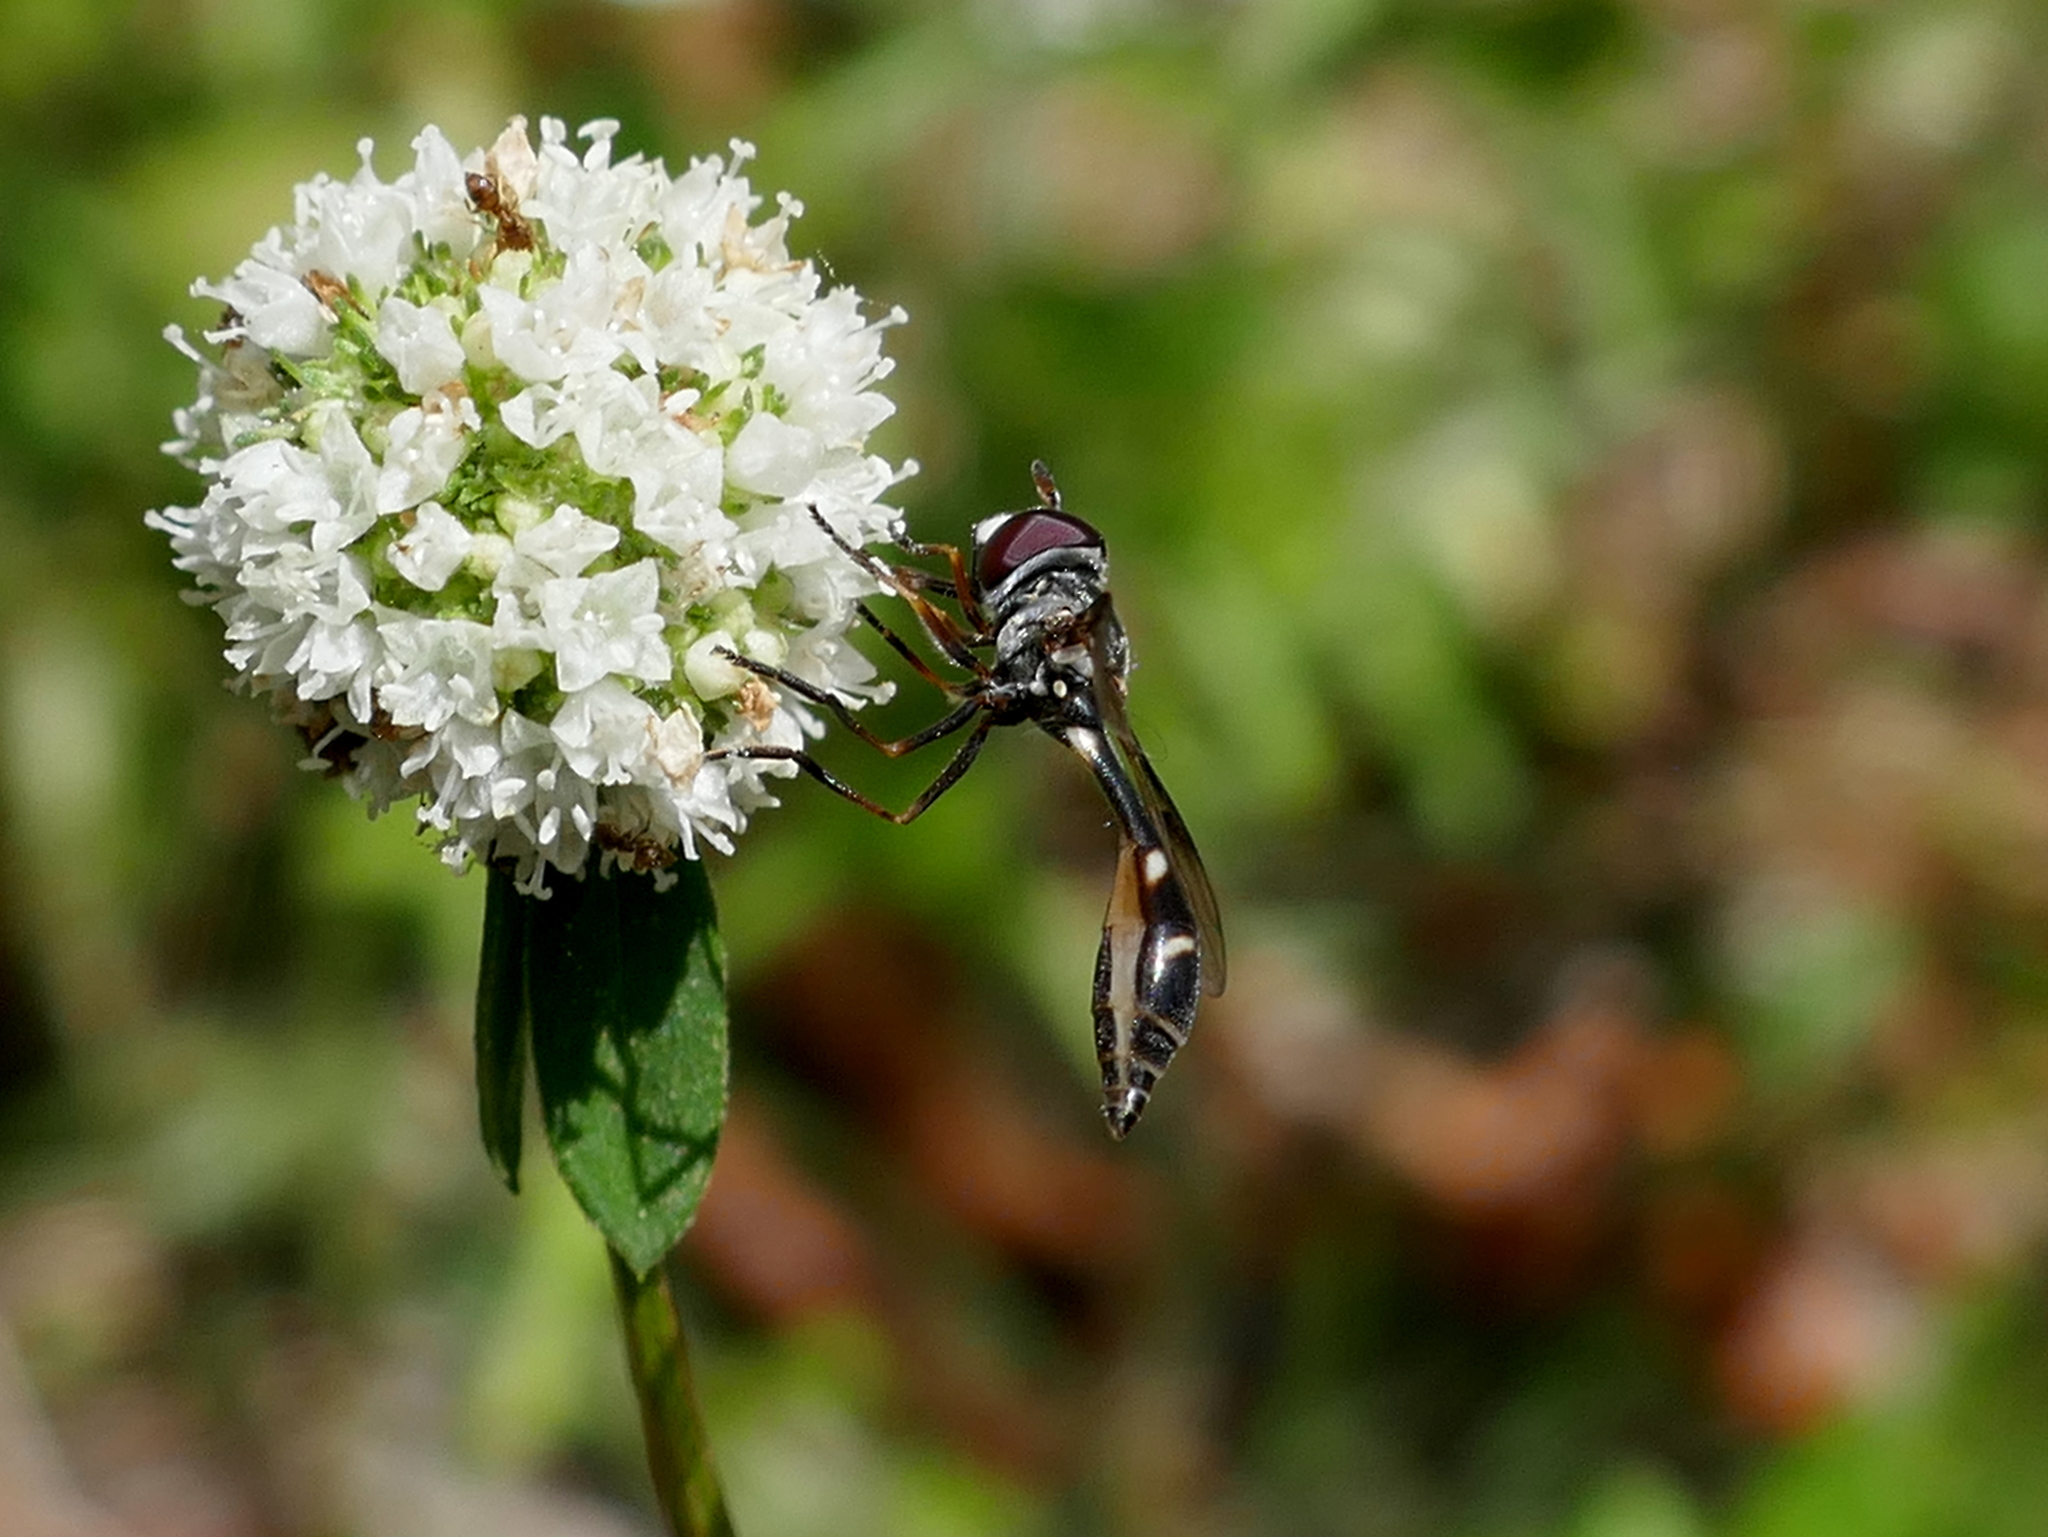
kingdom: Animalia
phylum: Arthropoda
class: Insecta
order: Diptera
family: Syrphidae
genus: Dioprosopa
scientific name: Dioprosopa clavatus
